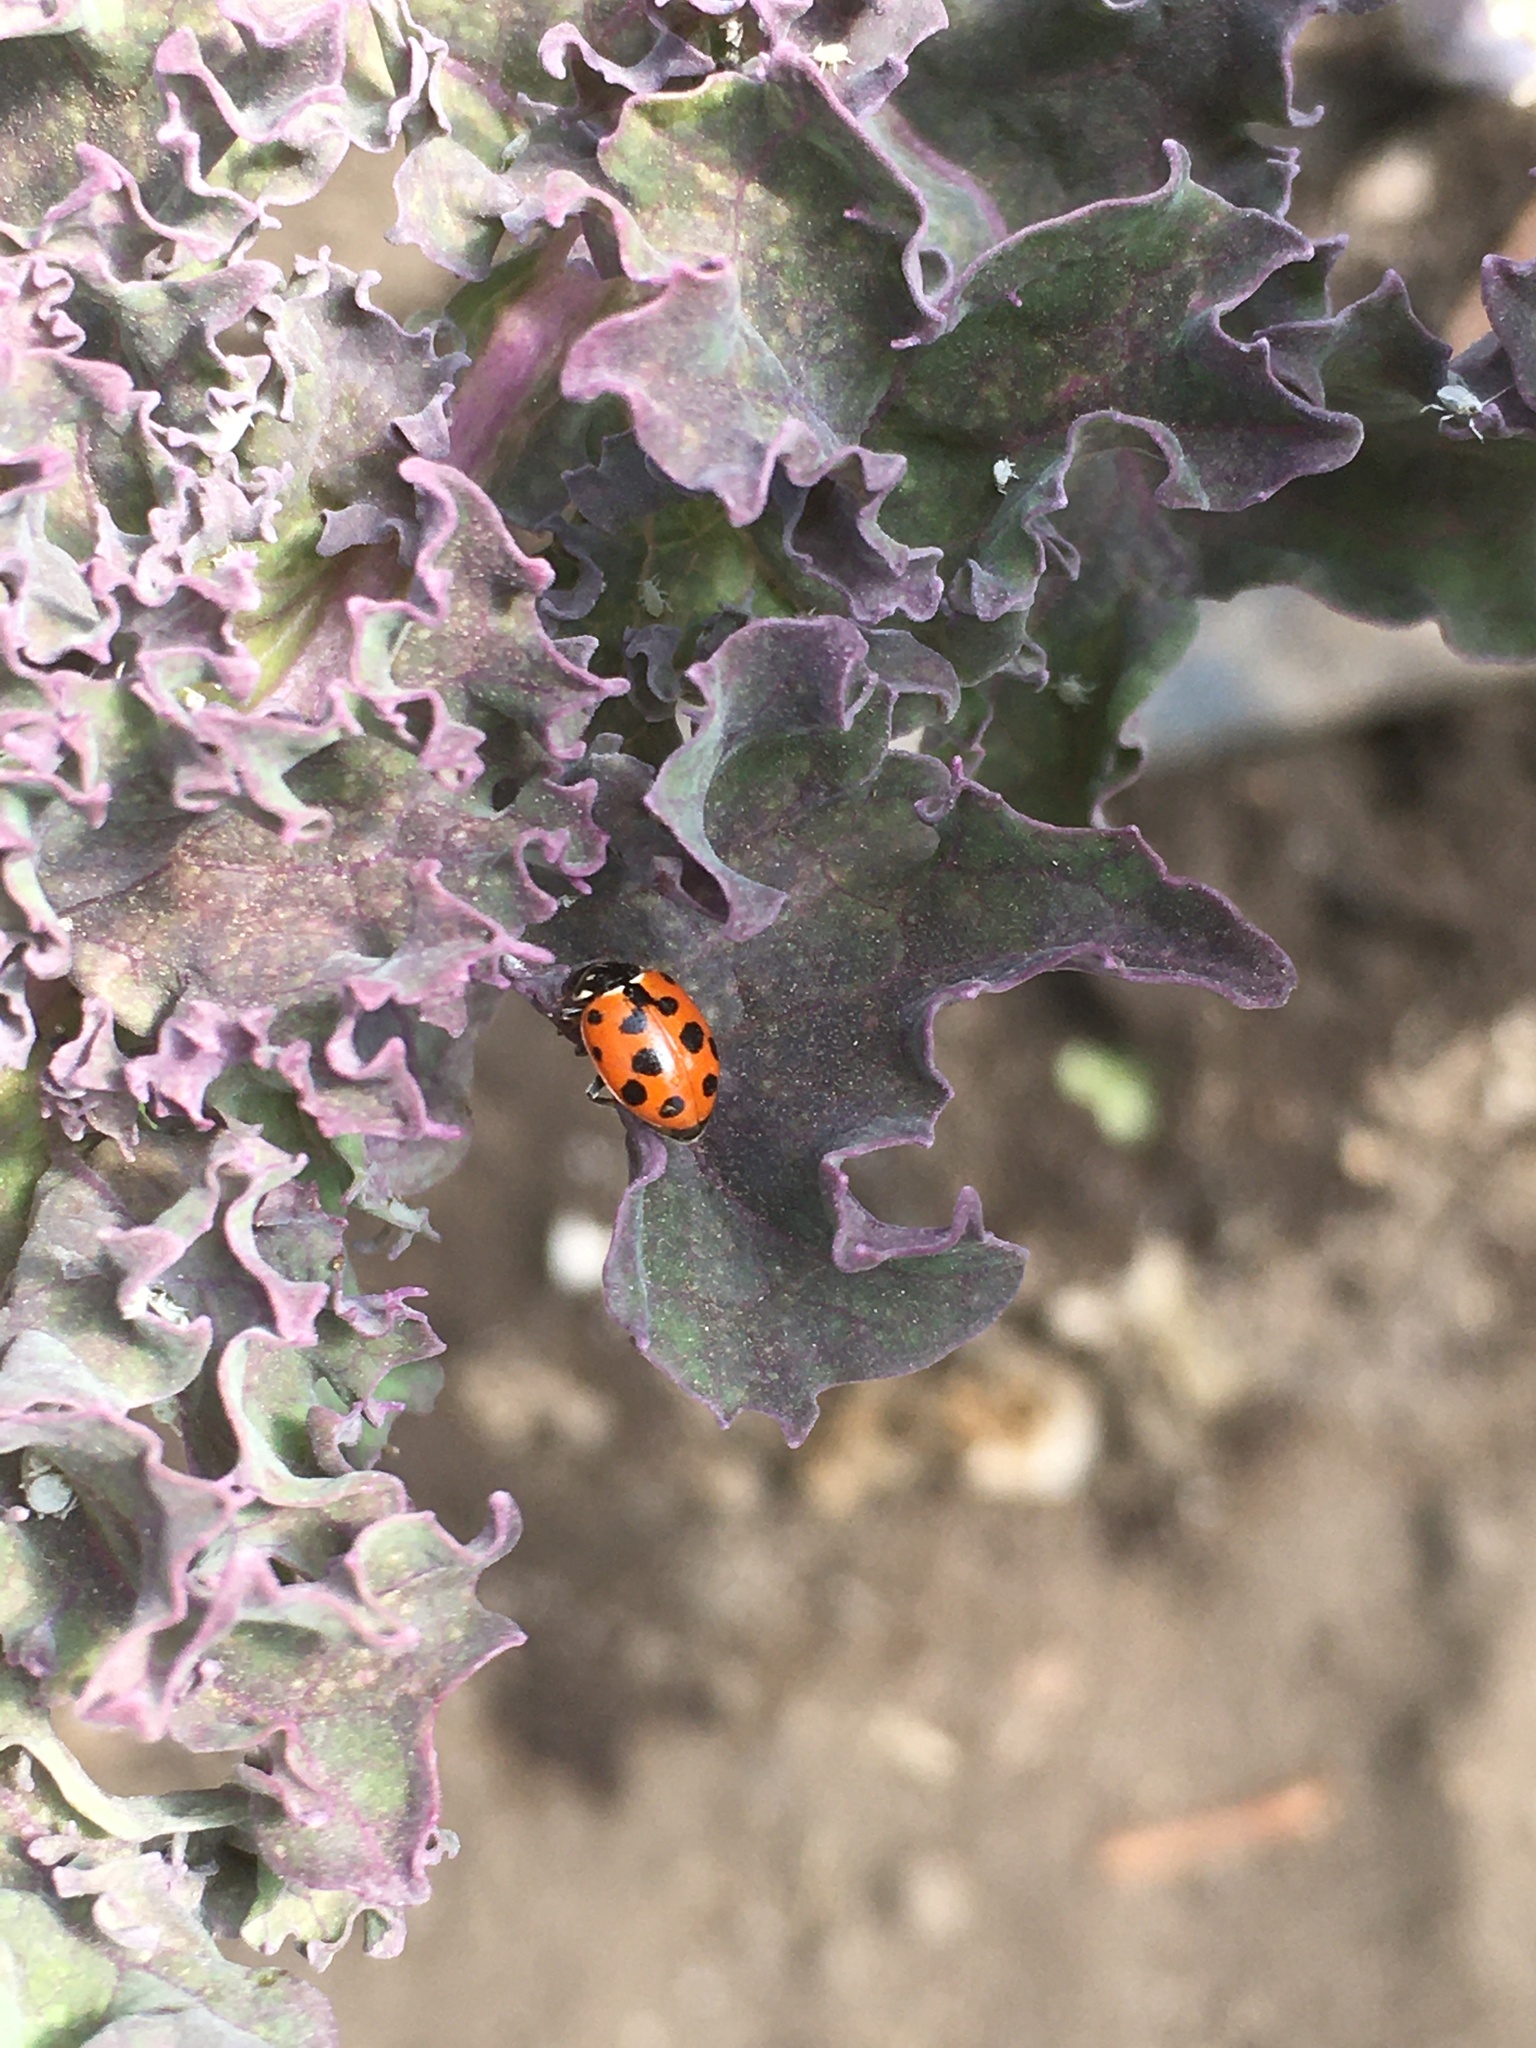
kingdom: Animalia
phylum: Arthropoda
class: Insecta
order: Coleoptera
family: Coccinellidae
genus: Hippodamia
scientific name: Hippodamia variegata
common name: Ladybird beetle
